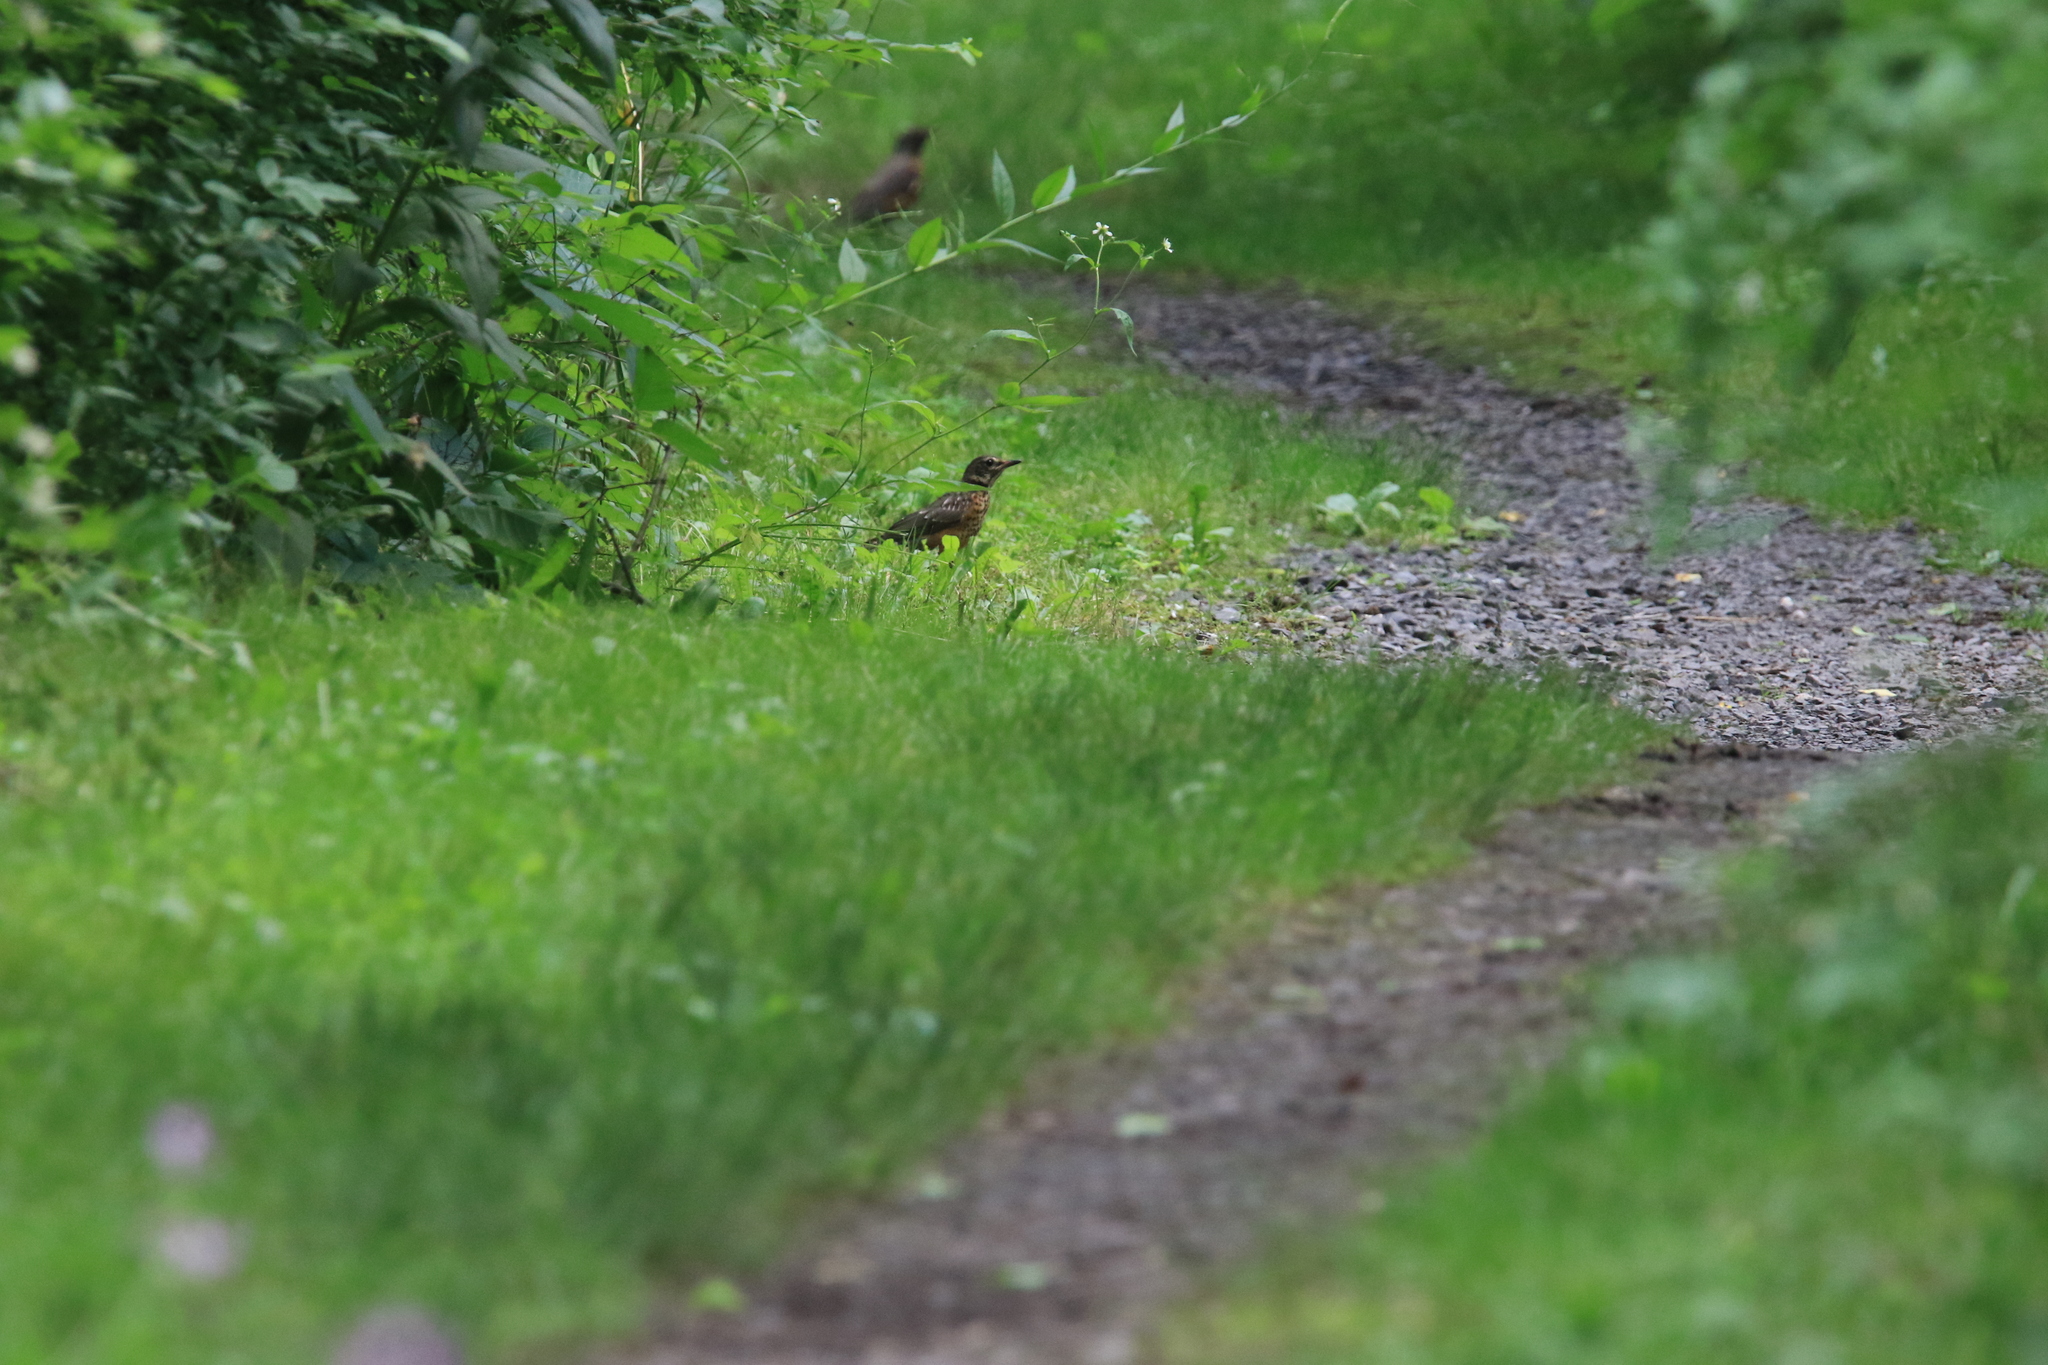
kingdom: Animalia
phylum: Chordata
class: Aves
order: Passeriformes
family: Turdidae
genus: Turdus
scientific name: Turdus migratorius
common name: American robin
